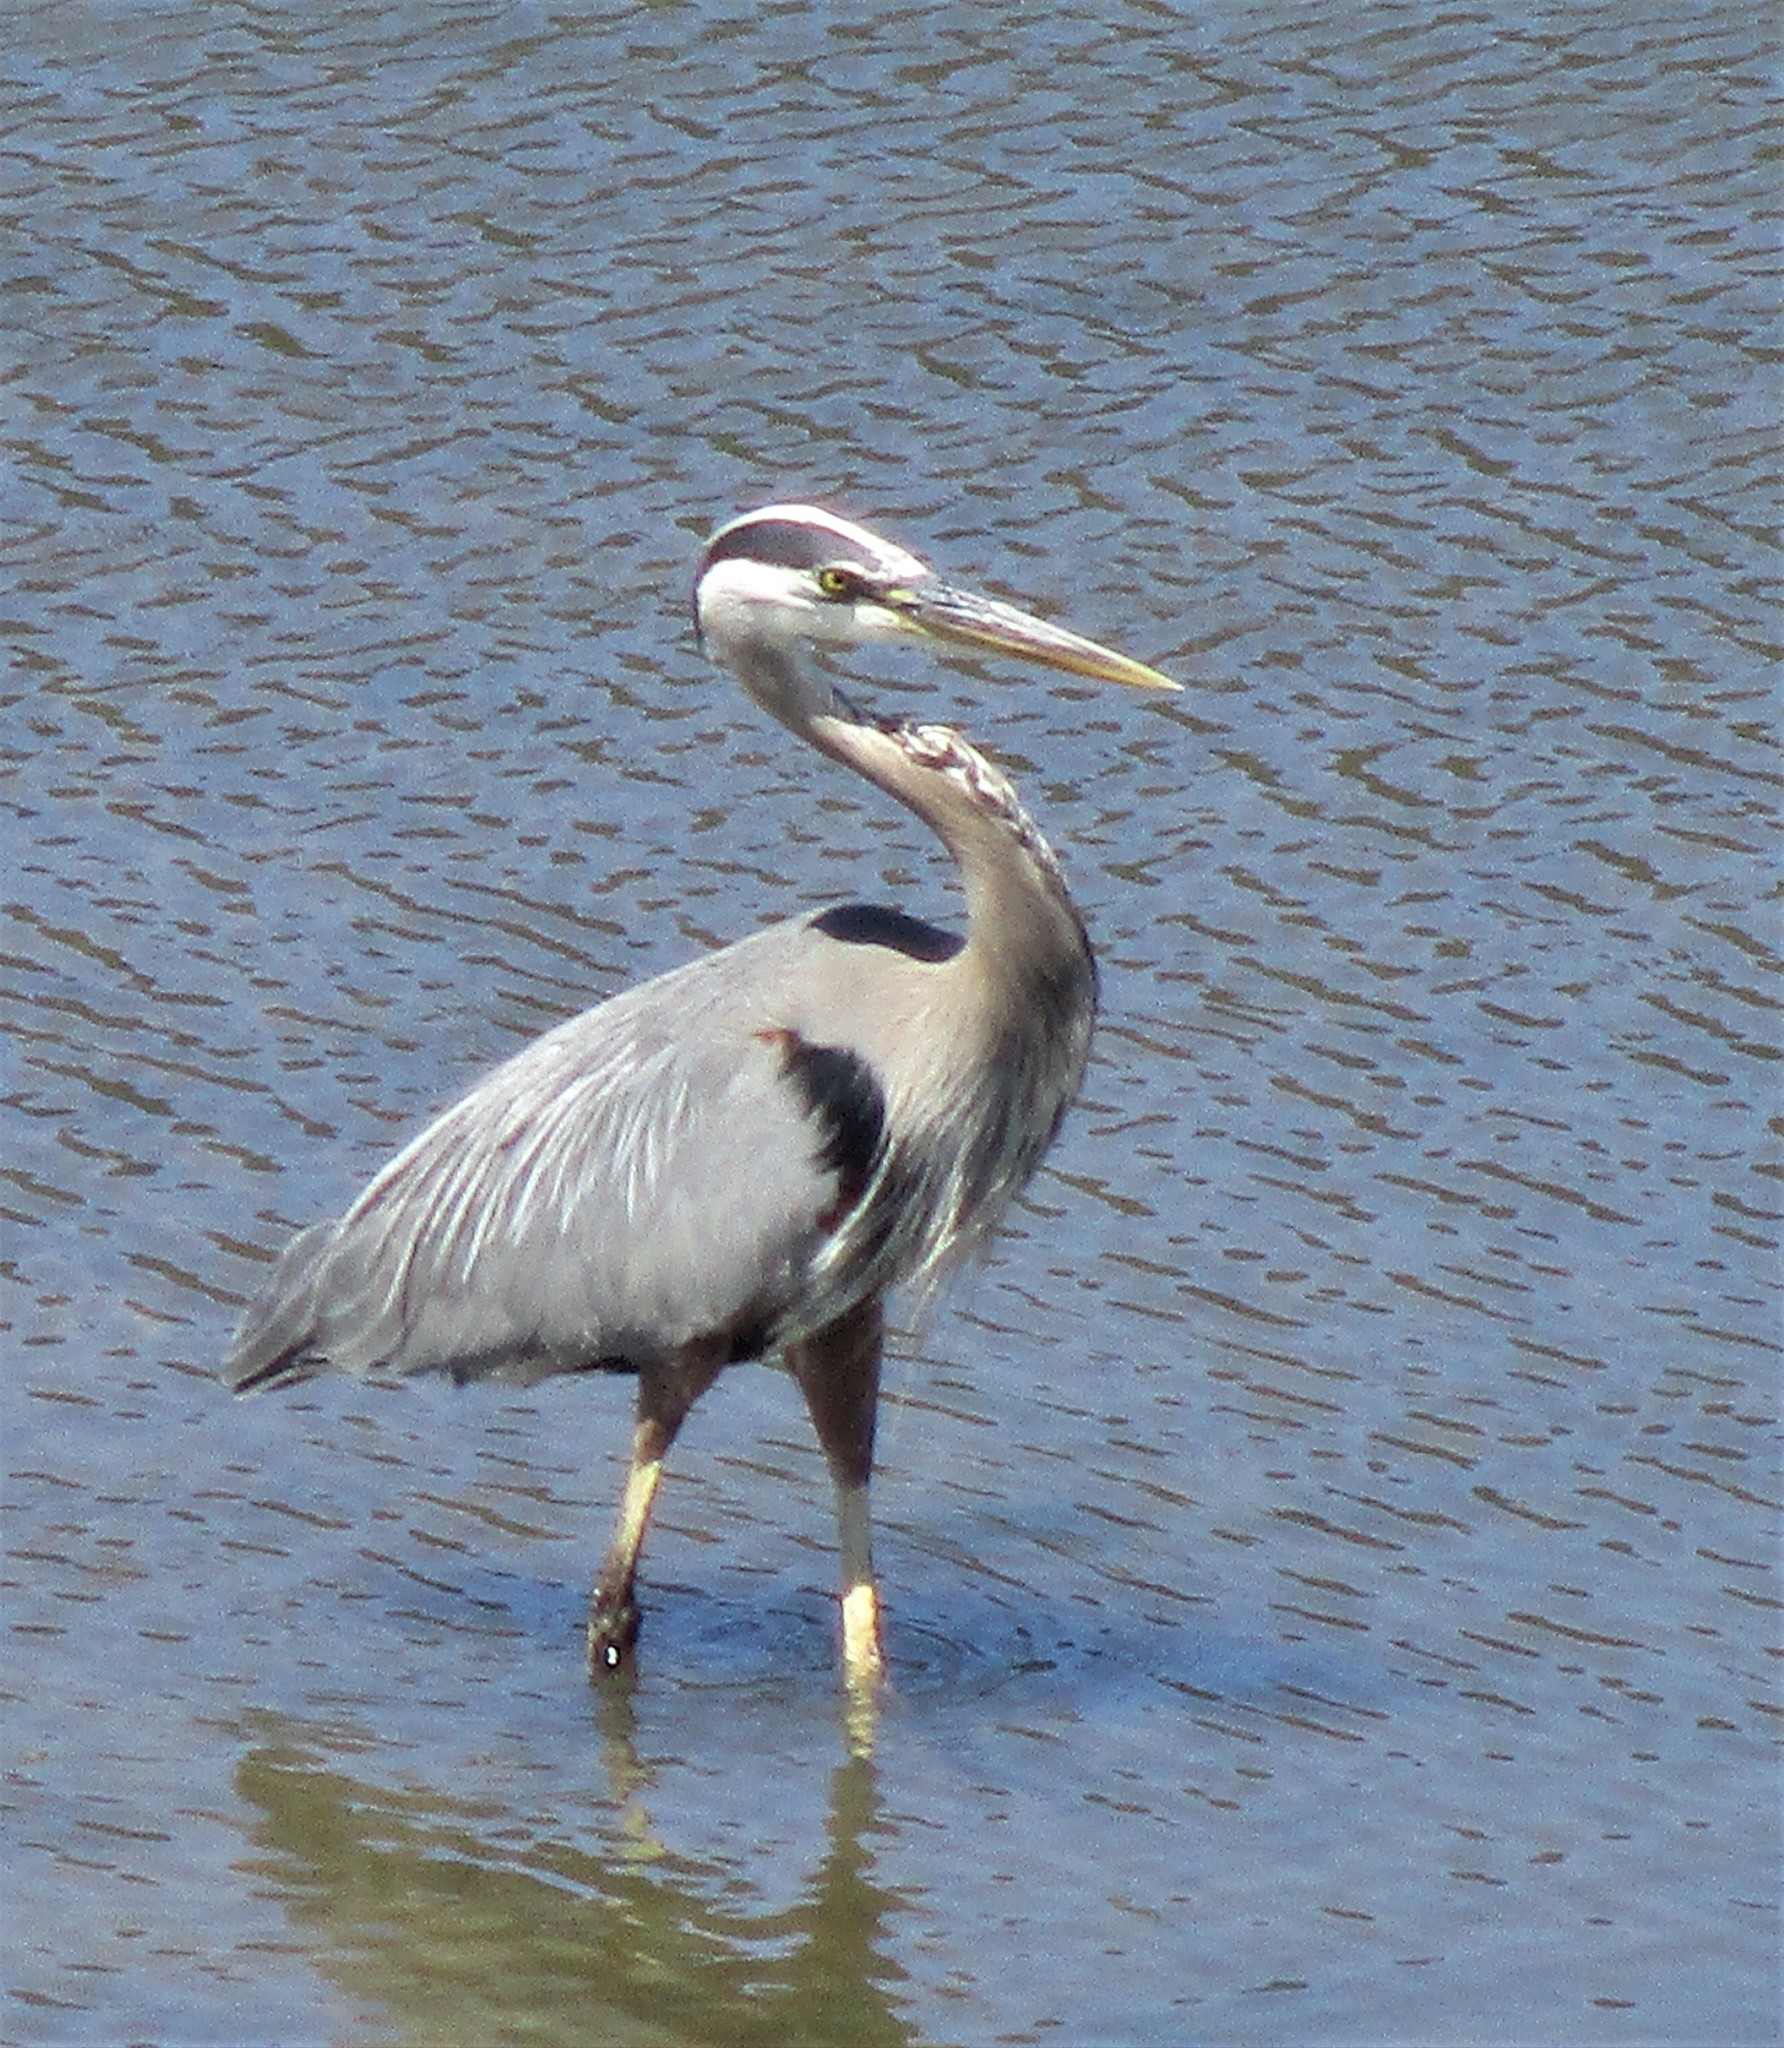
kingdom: Animalia
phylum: Chordata
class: Aves
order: Pelecaniformes
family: Ardeidae
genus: Ardea
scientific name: Ardea herodias
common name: Great blue heron
